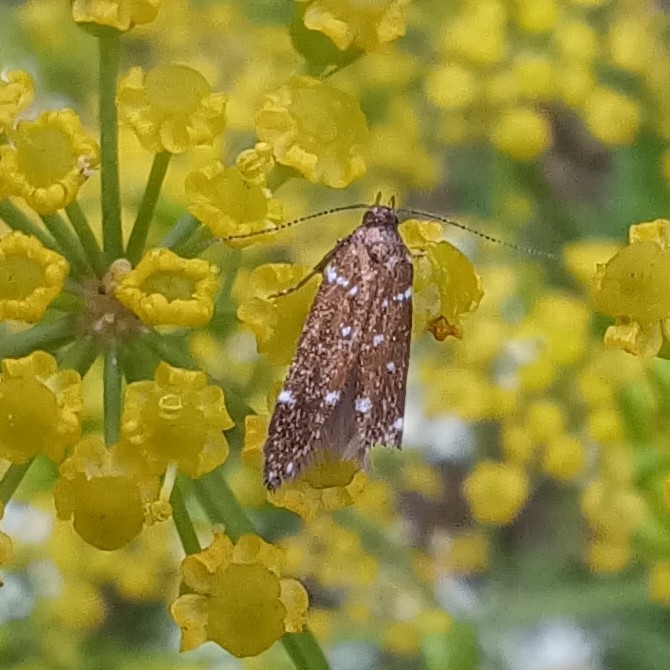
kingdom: Animalia
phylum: Arthropoda
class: Insecta
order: Lepidoptera
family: Gelechiidae
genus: Argolamprotes
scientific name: Argolamprotes micella
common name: Bright neb
